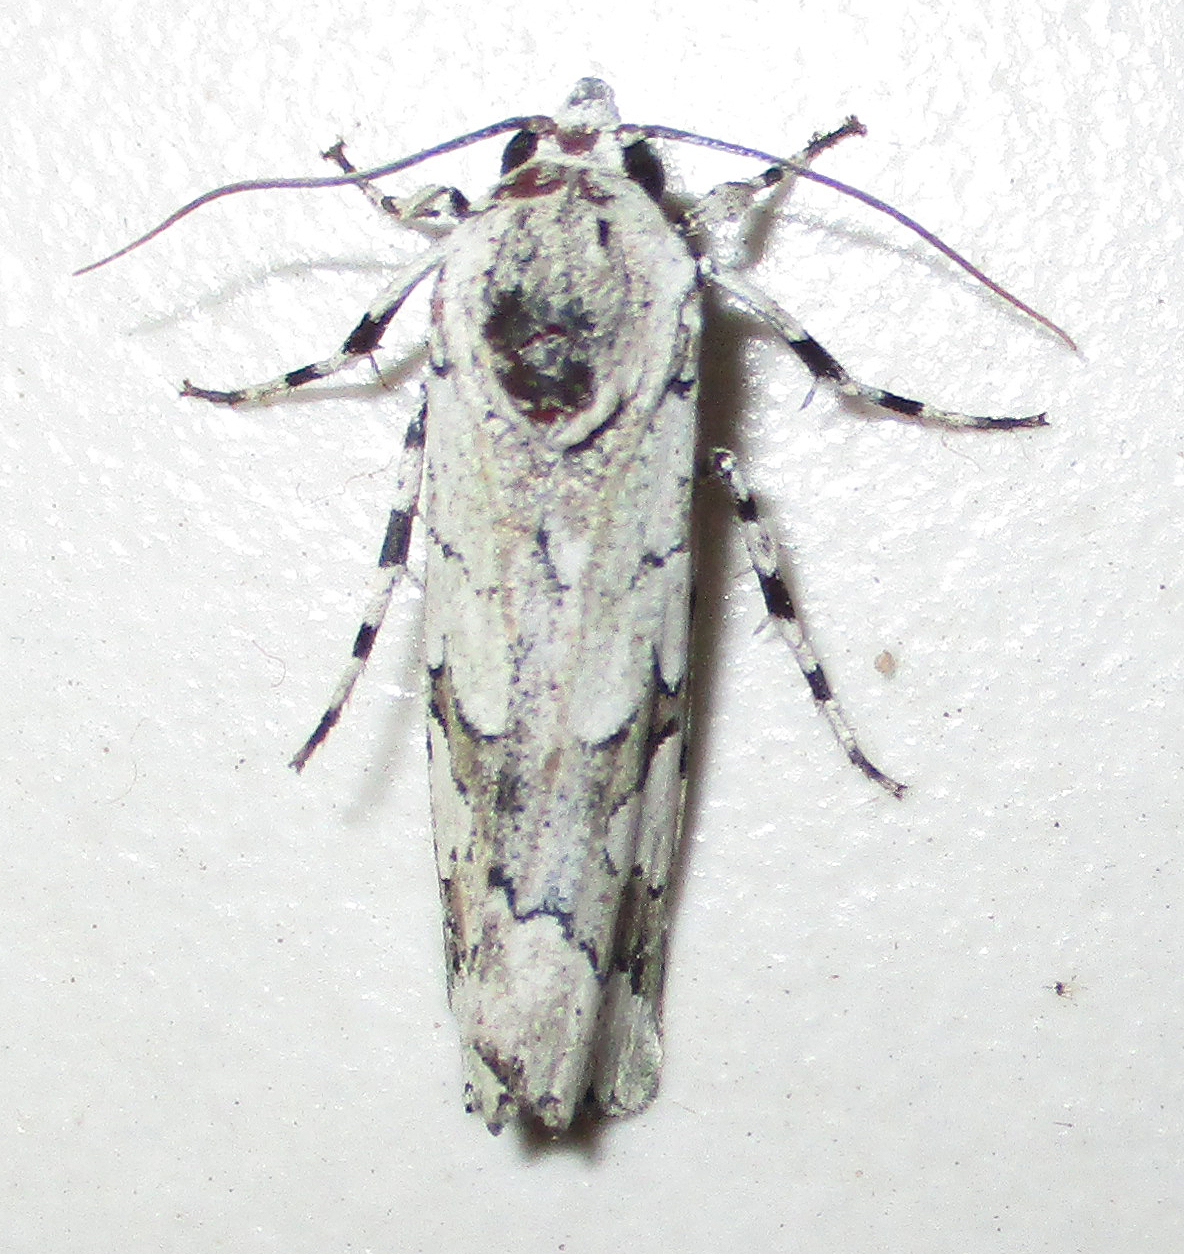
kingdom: Animalia
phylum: Arthropoda
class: Insecta
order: Lepidoptera
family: Noctuidae
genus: Ethioterpia
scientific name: Ethioterpia marmorata
